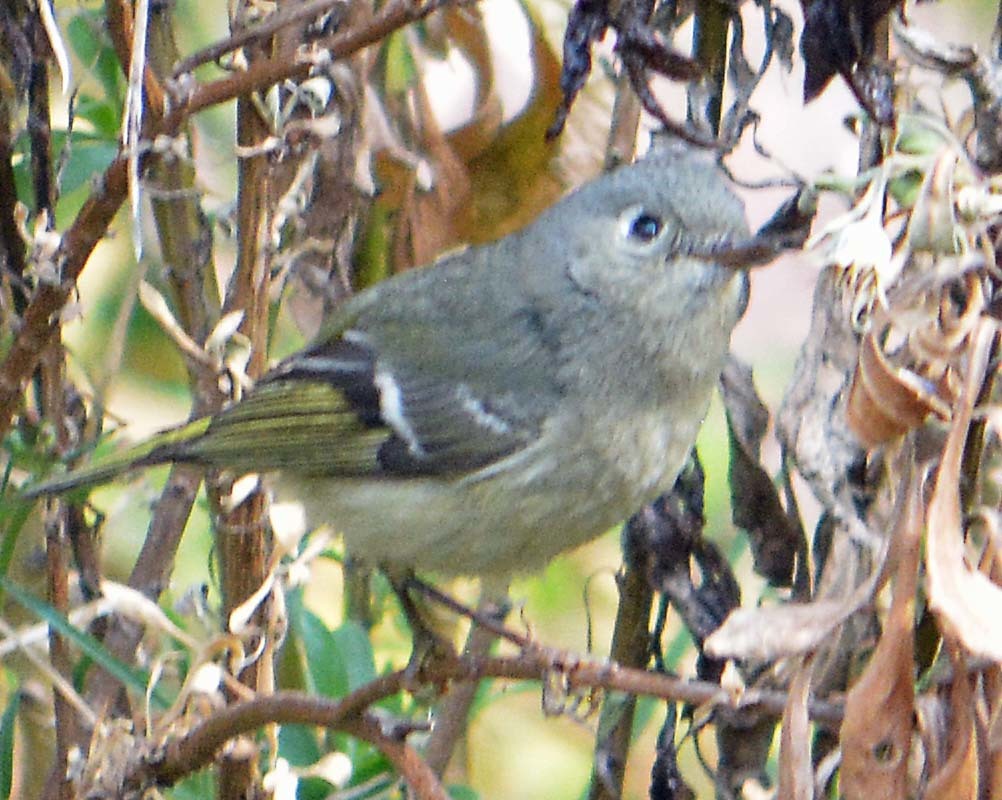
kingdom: Animalia
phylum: Chordata
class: Aves
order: Passeriformes
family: Regulidae
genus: Regulus
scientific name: Regulus calendula
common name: Ruby-crowned kinglet
